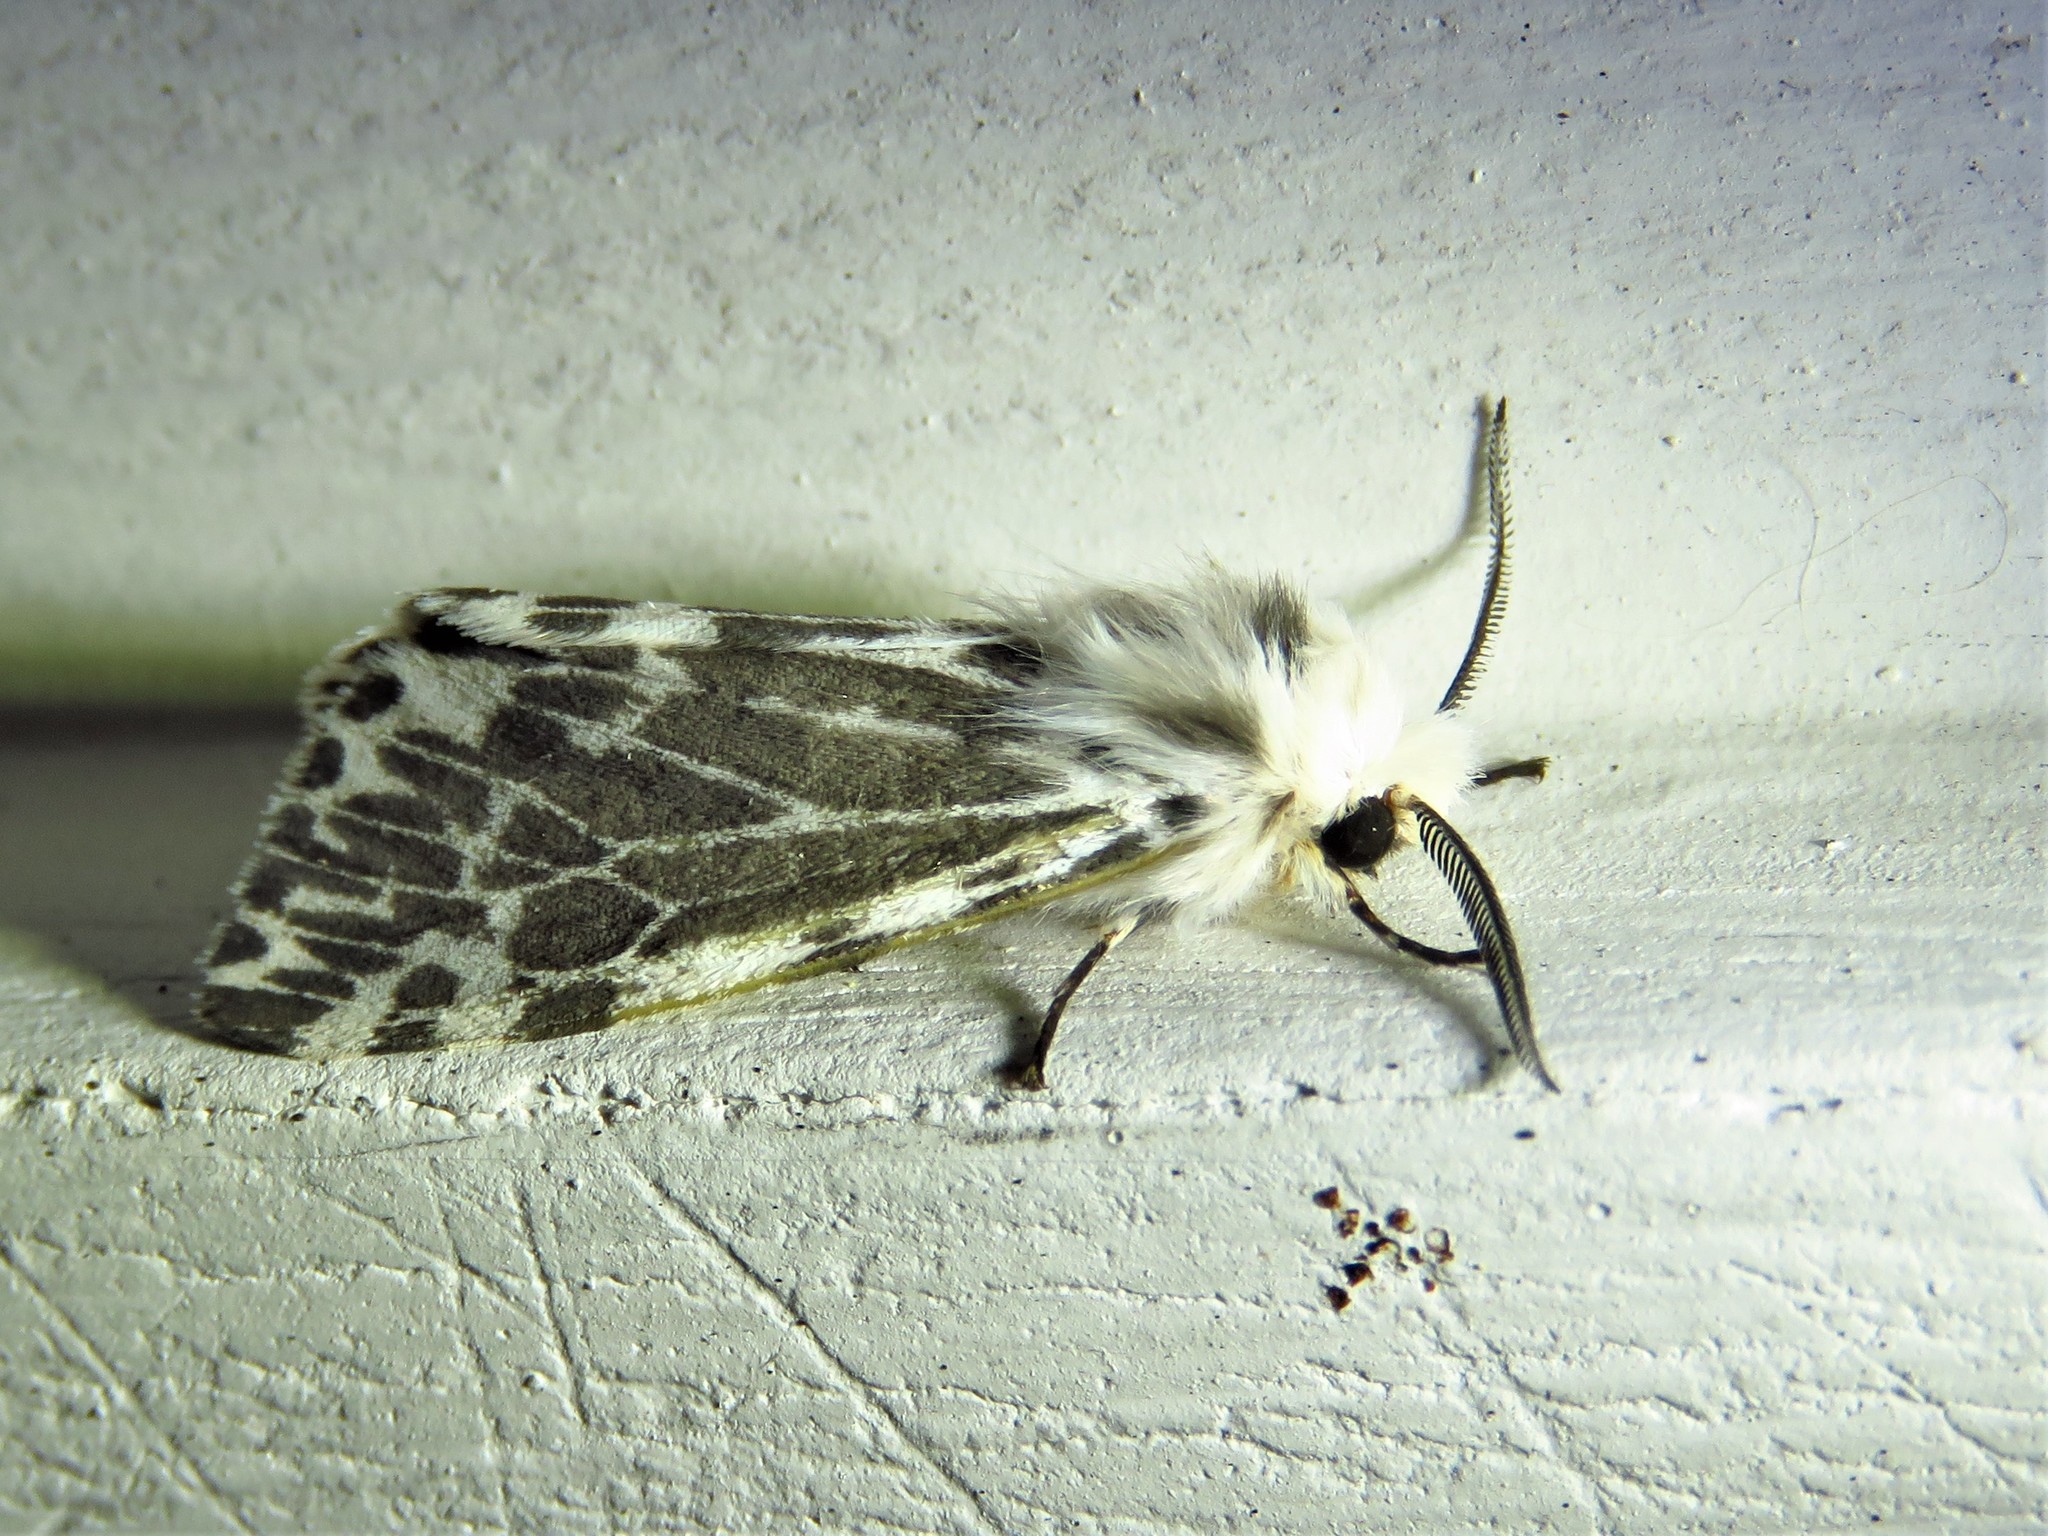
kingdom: Animalia
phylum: Arthropoda
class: Insecta
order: Lepidoptera
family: Erebidae
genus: Hyphantria
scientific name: Hyphantria cunea
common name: American white moth
